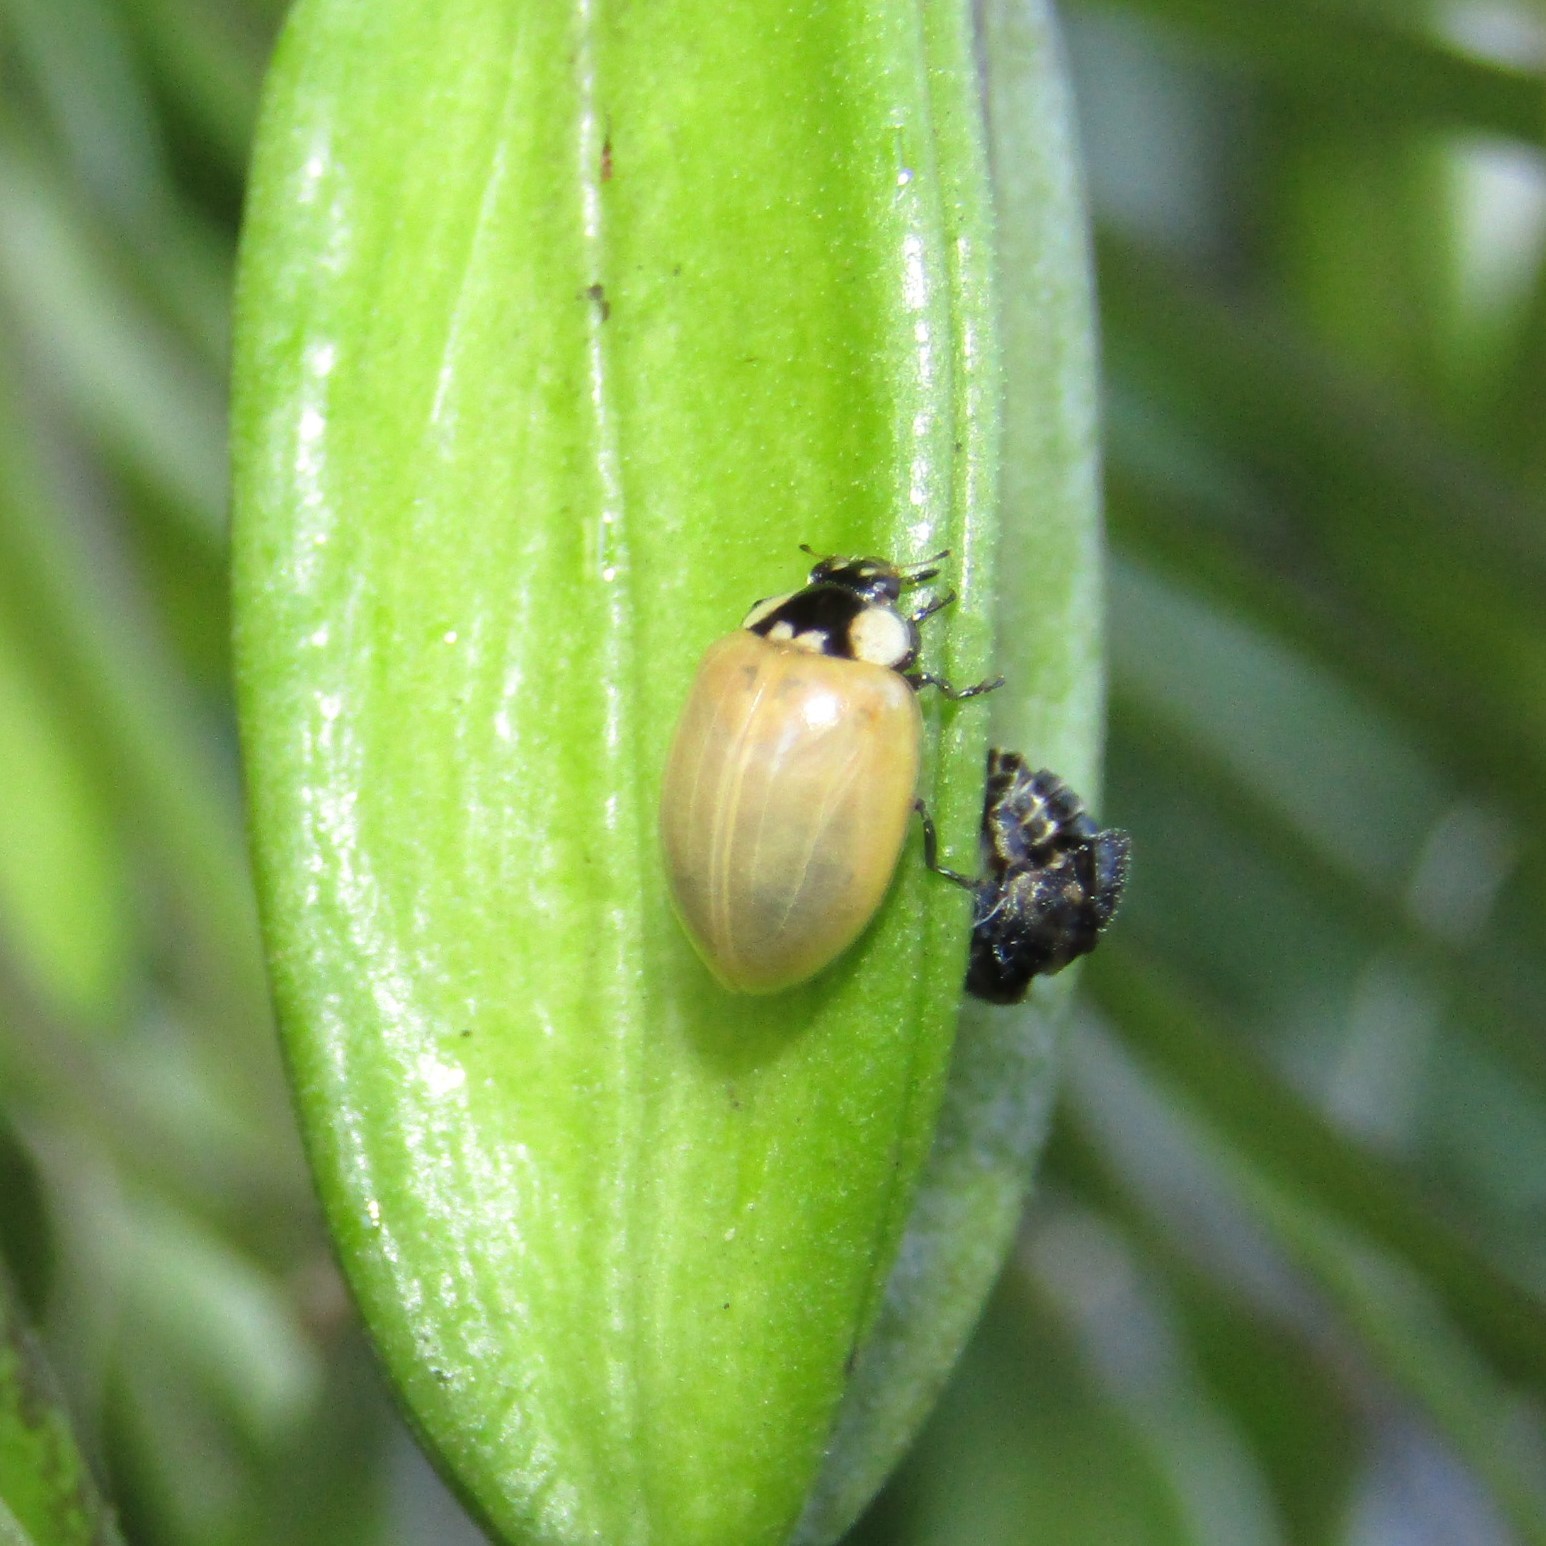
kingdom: Animalia
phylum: Arthropoda
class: Insecta
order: Coleoptera
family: Coccinellidae
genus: Harmonia
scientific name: Harmonia axyridis
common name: Harlequin ladybird
